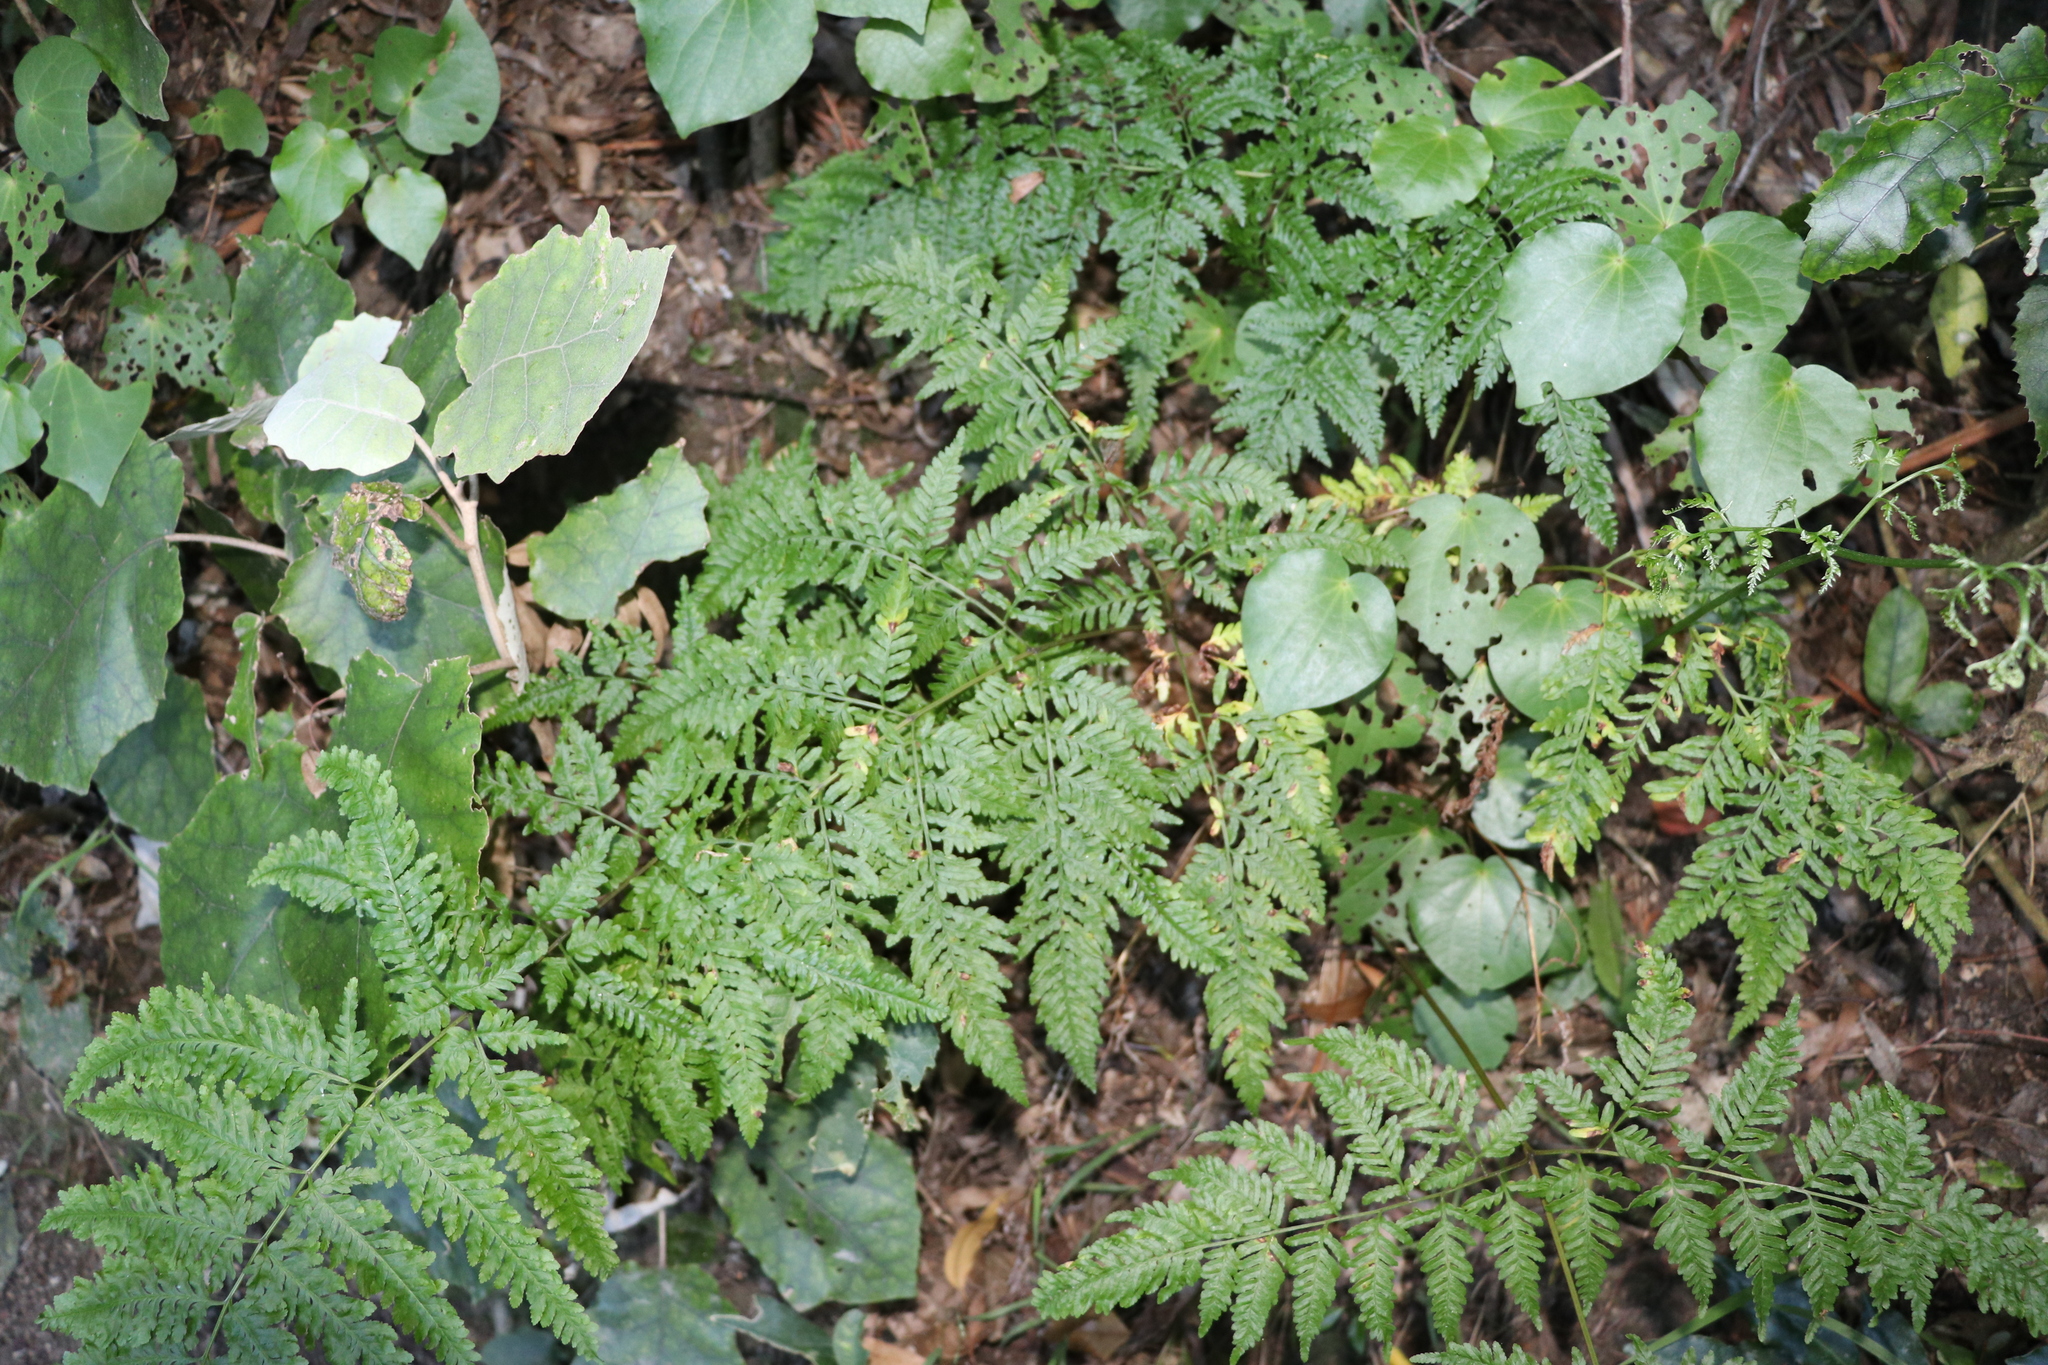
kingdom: Plantae
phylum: Tracheophyta
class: Polypodiopsida
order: Polypodiales
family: Pteridaceae
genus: Pteris
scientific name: Pteris tremula
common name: Australian brake
